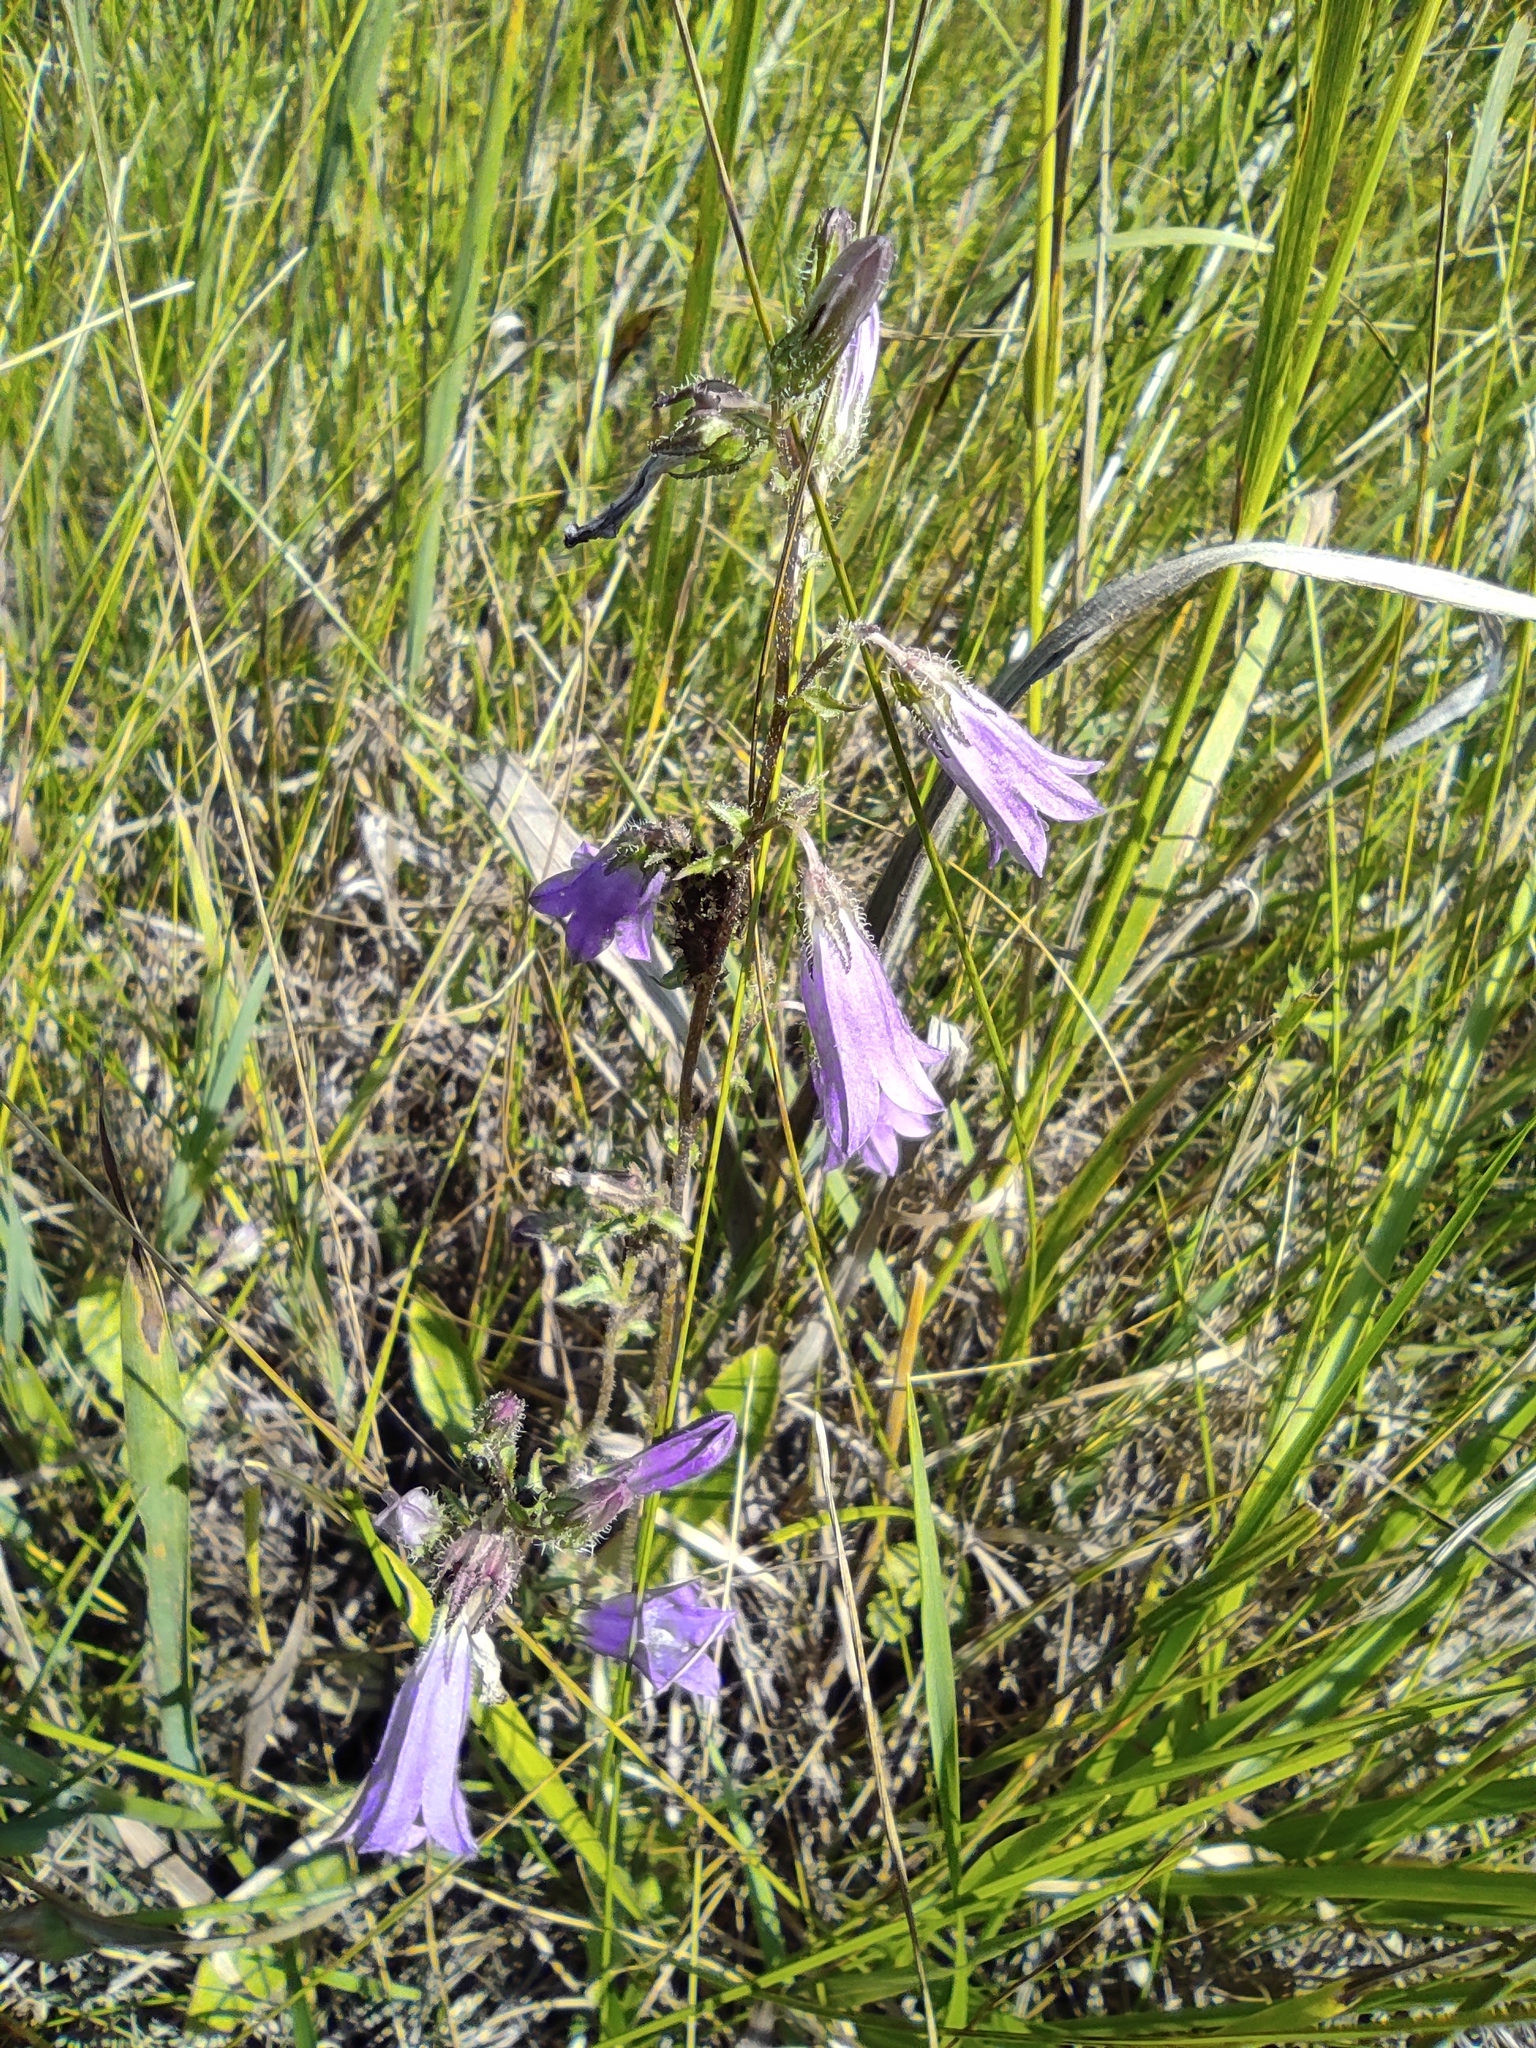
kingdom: Plantae
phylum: Tracheophyta
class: Magnoliopsida
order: Asterales
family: Campanulaceae
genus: Campanula
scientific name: Campanula sibirica
